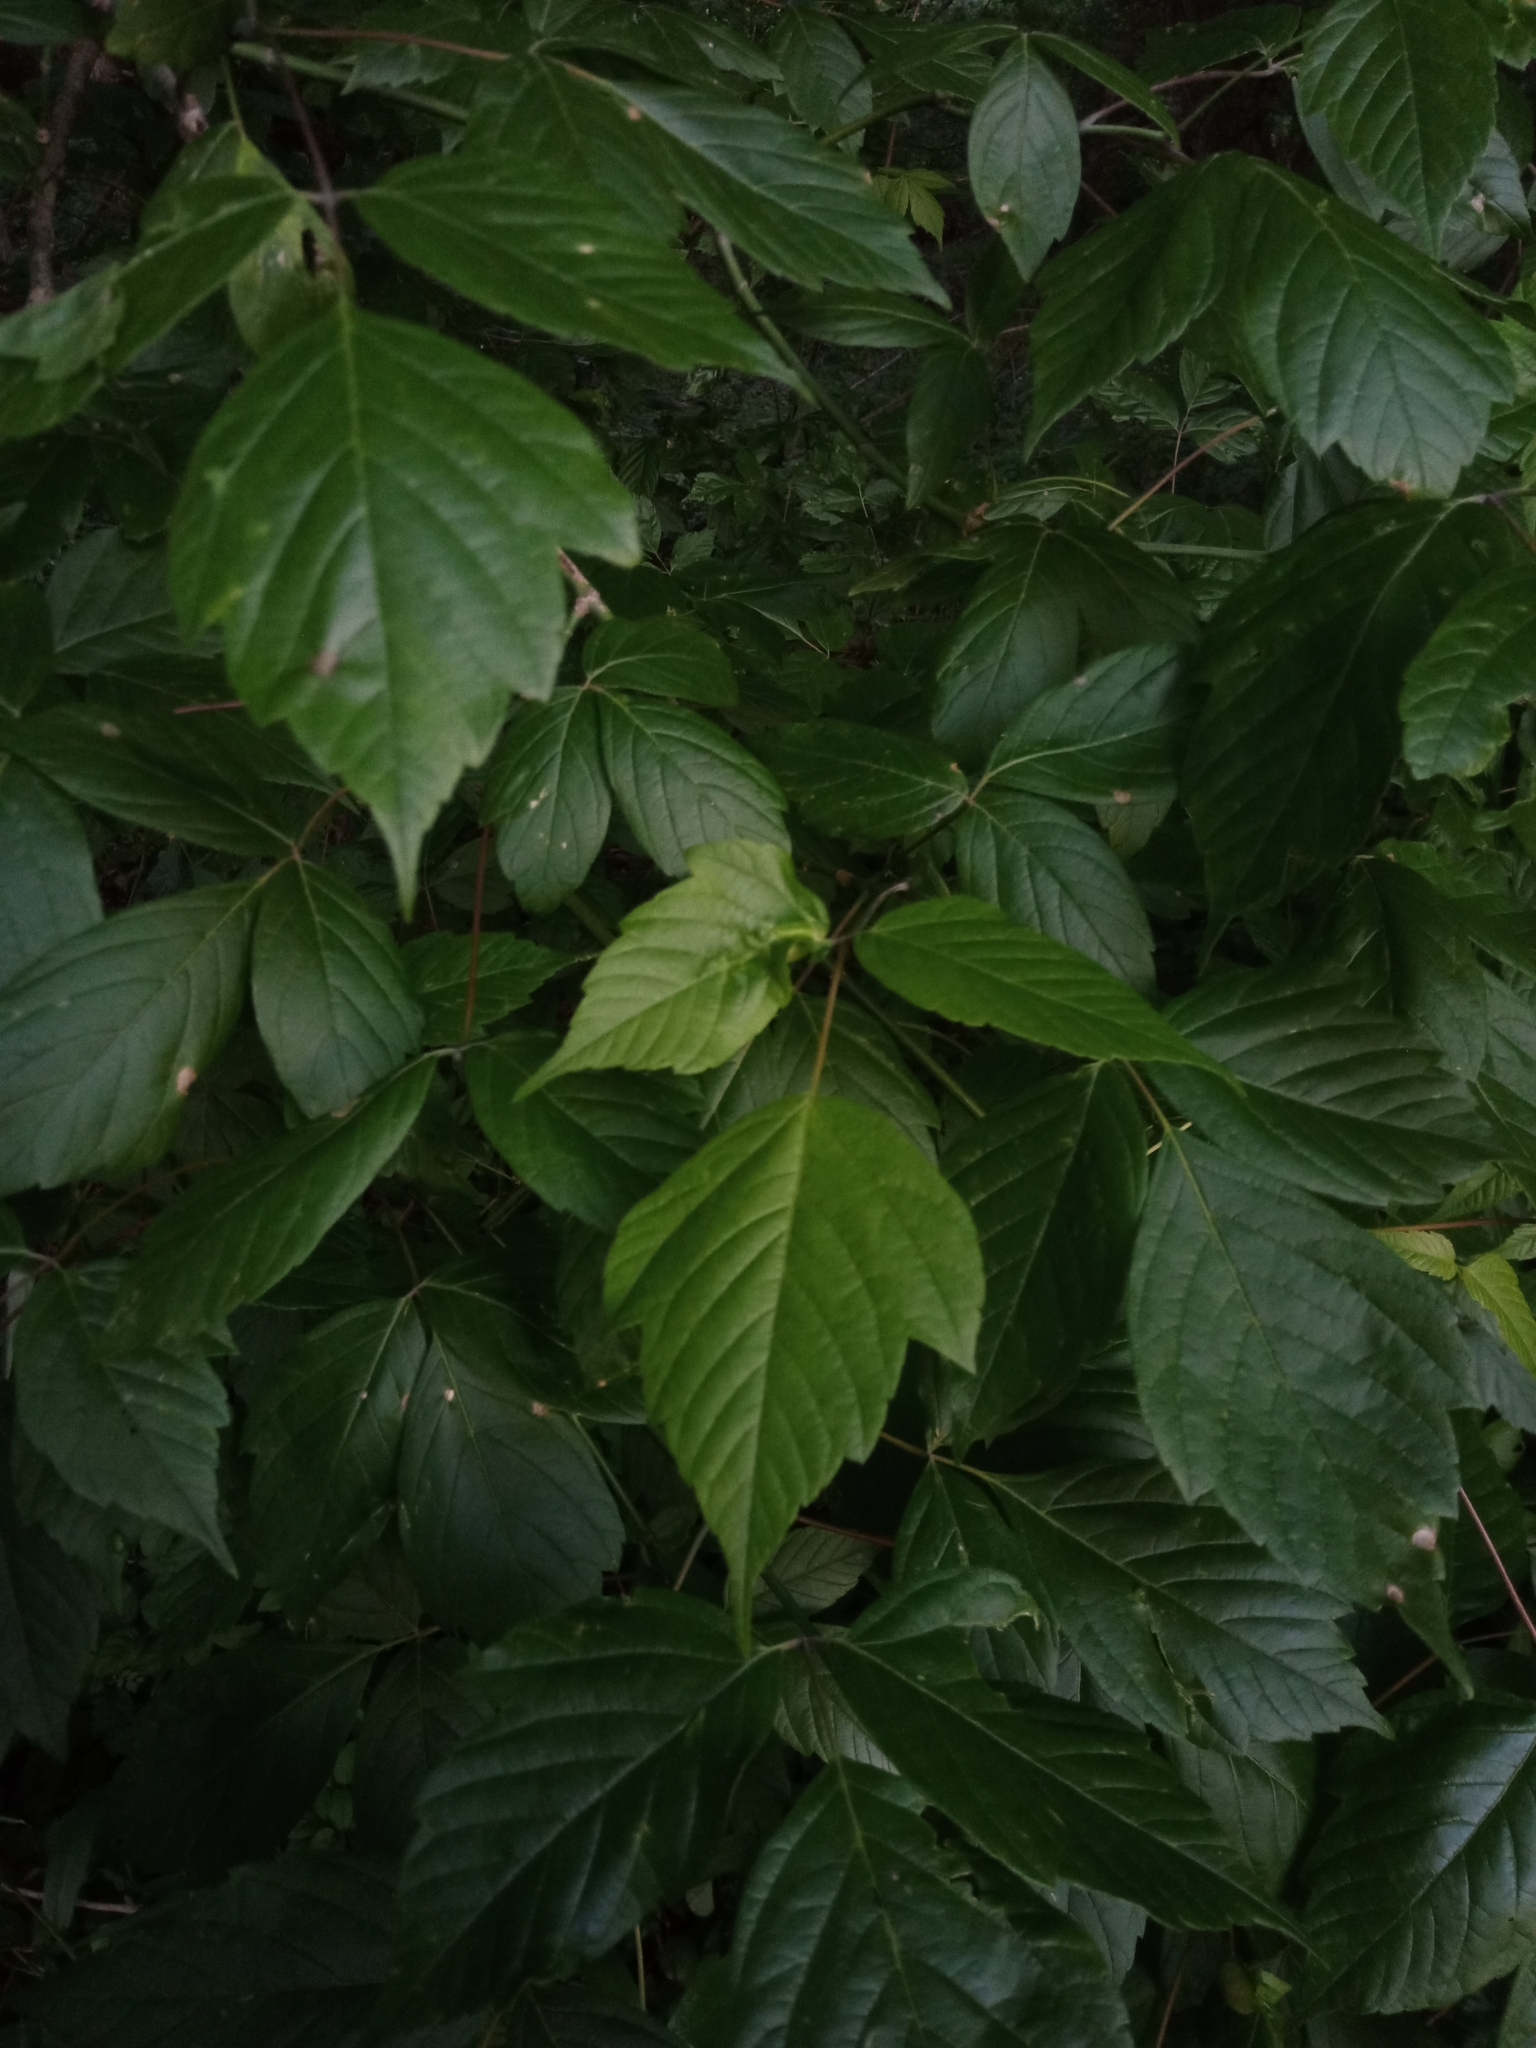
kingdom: Plantae
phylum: Tracheophyta
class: Magnoliopsida
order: Sapindales
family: Sapindaceae
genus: Acer
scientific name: Acer negundo
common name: Ashleaf maple
